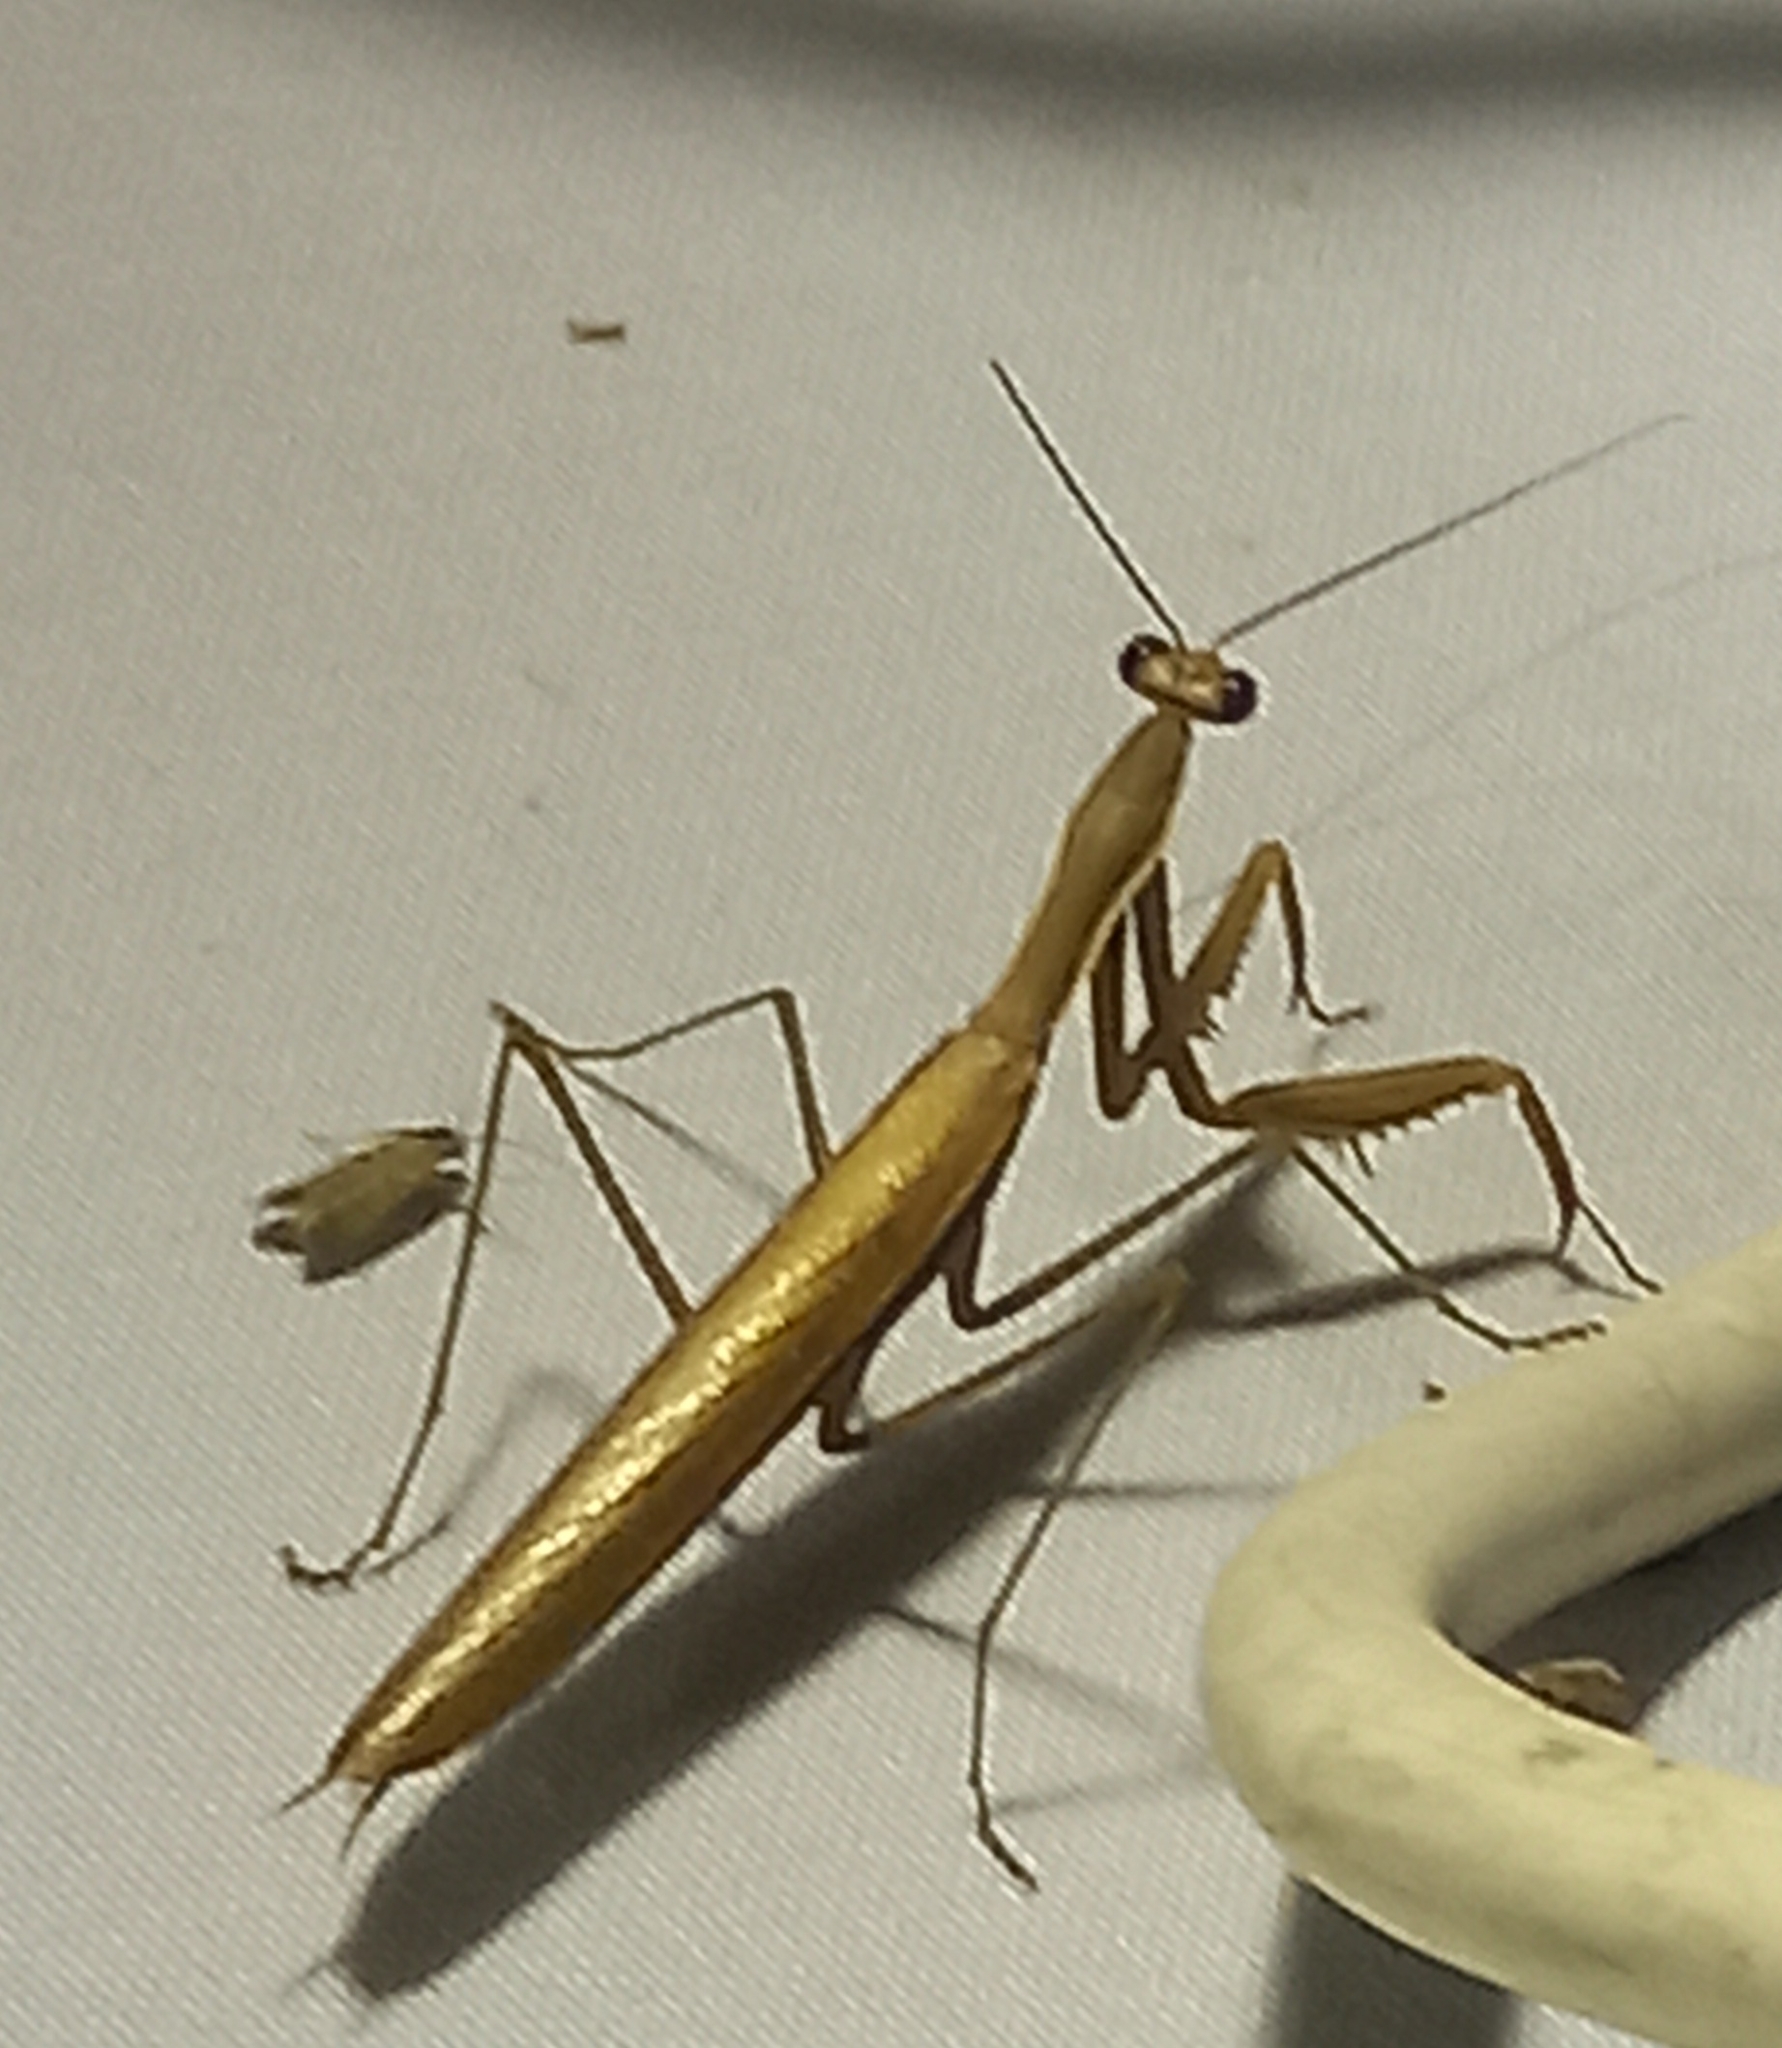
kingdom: Animalia
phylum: Arthropoda
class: Insecta
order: Mantodea
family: Mantidae
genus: Mantis
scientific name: Mantis religiosa
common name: Praying mantis
